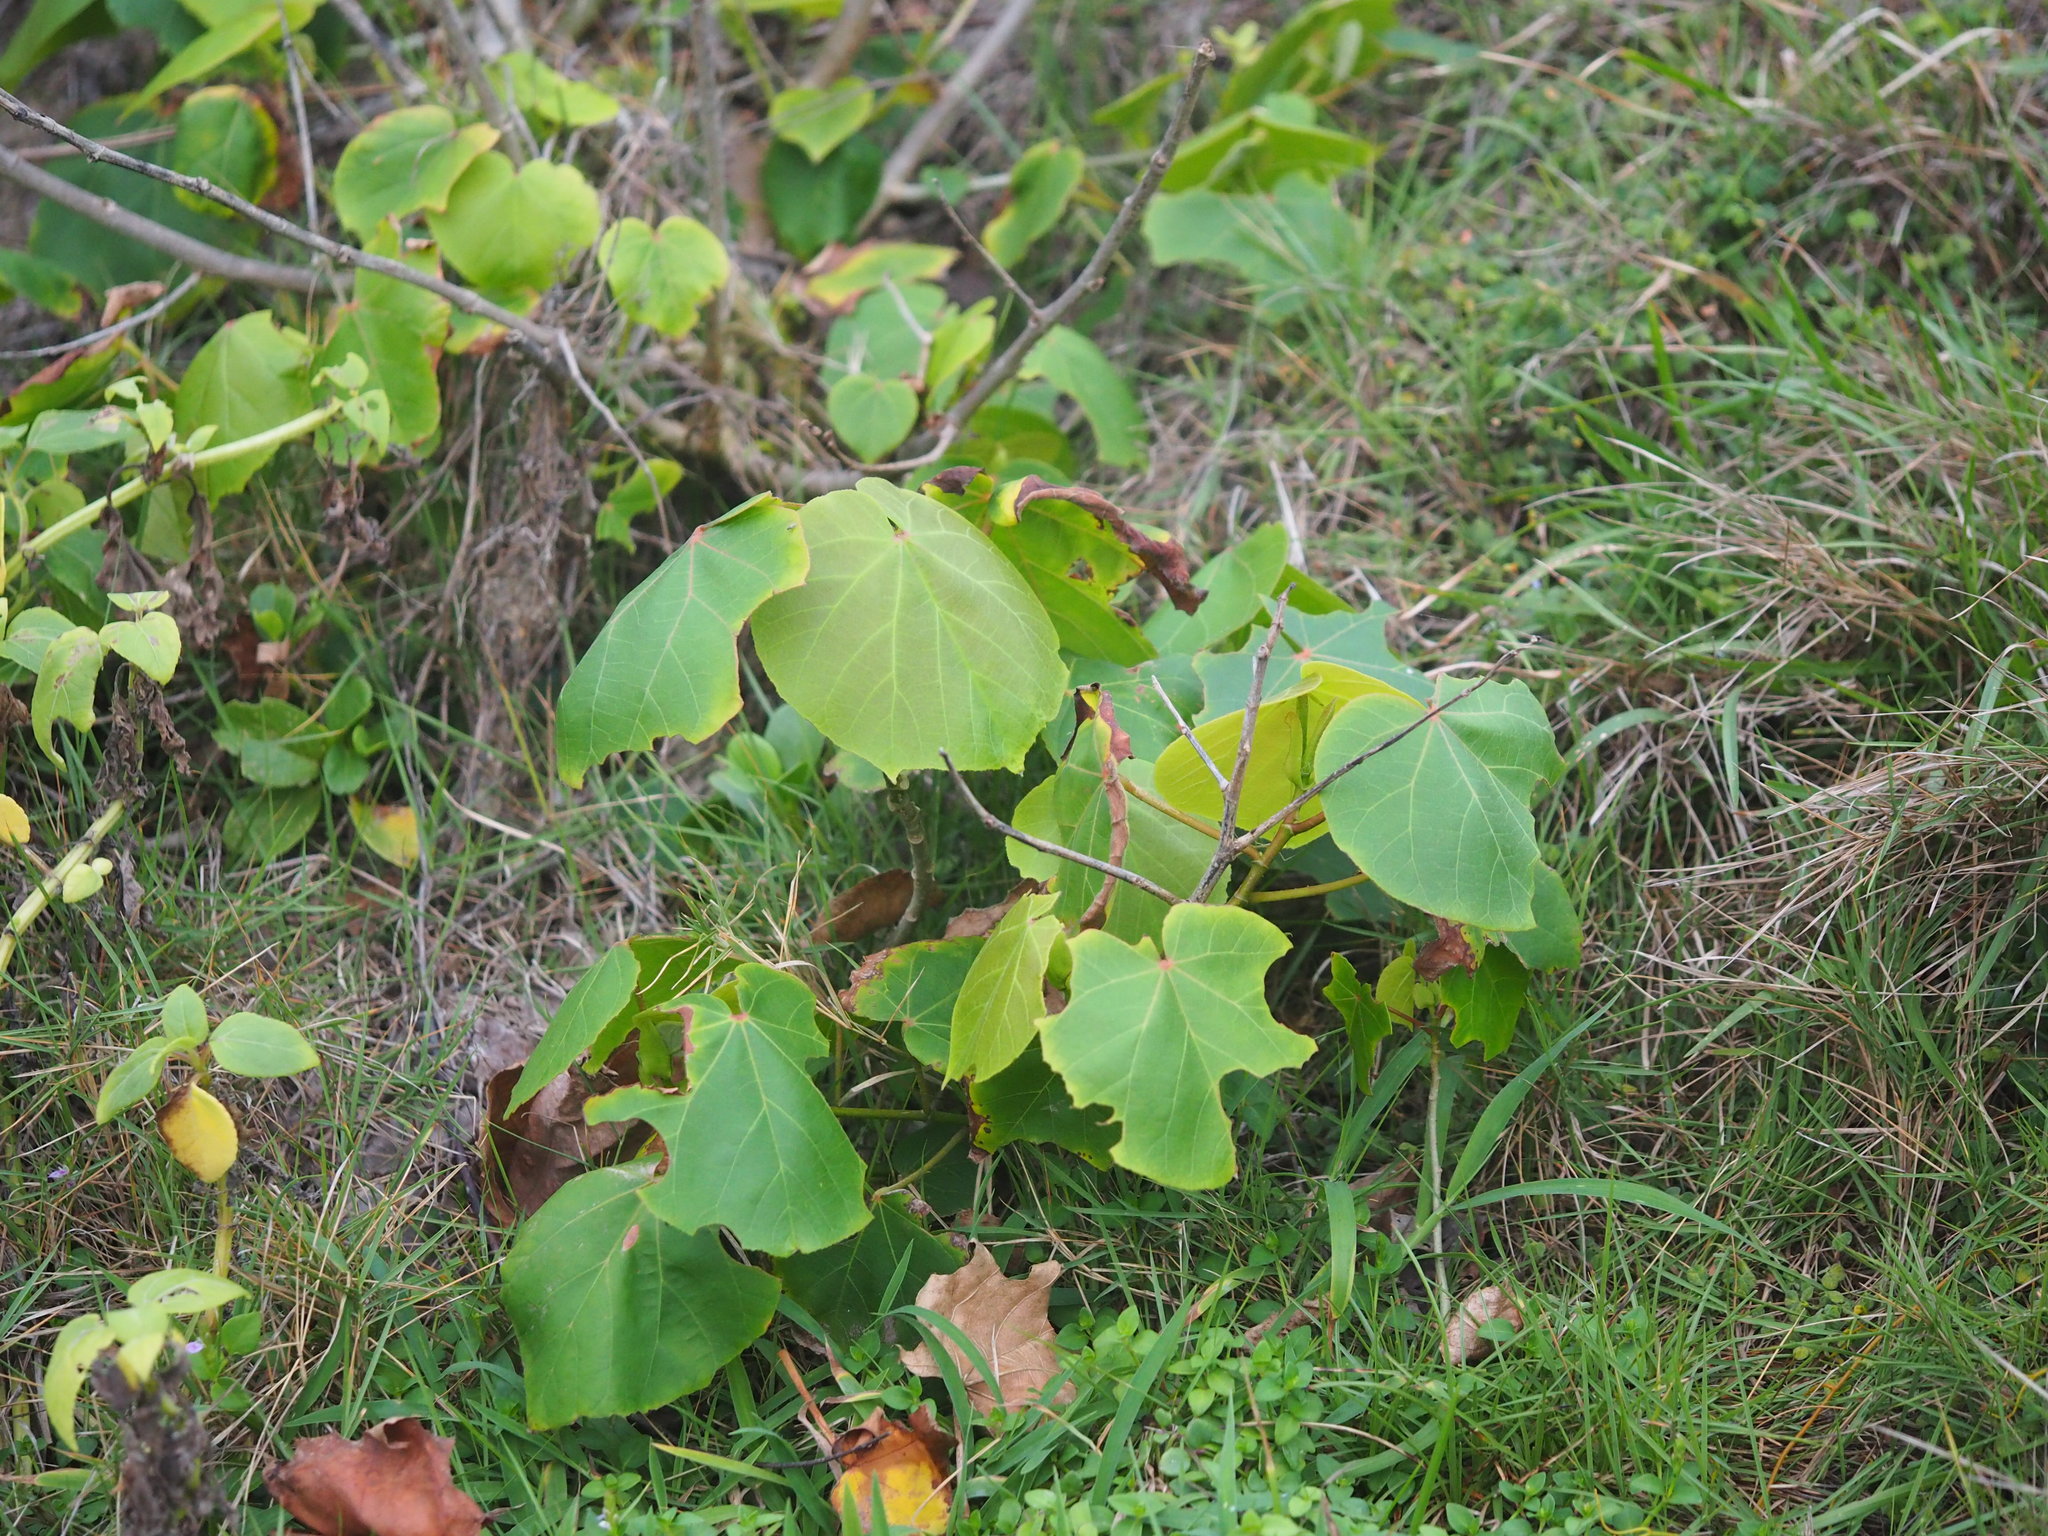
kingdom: Plantae
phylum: Tracheophyta
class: Magnoliopsida
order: Malvales
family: Malvaceae
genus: Talipariti
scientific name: Talipariti tiliaceum
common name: Sea hibiscus
